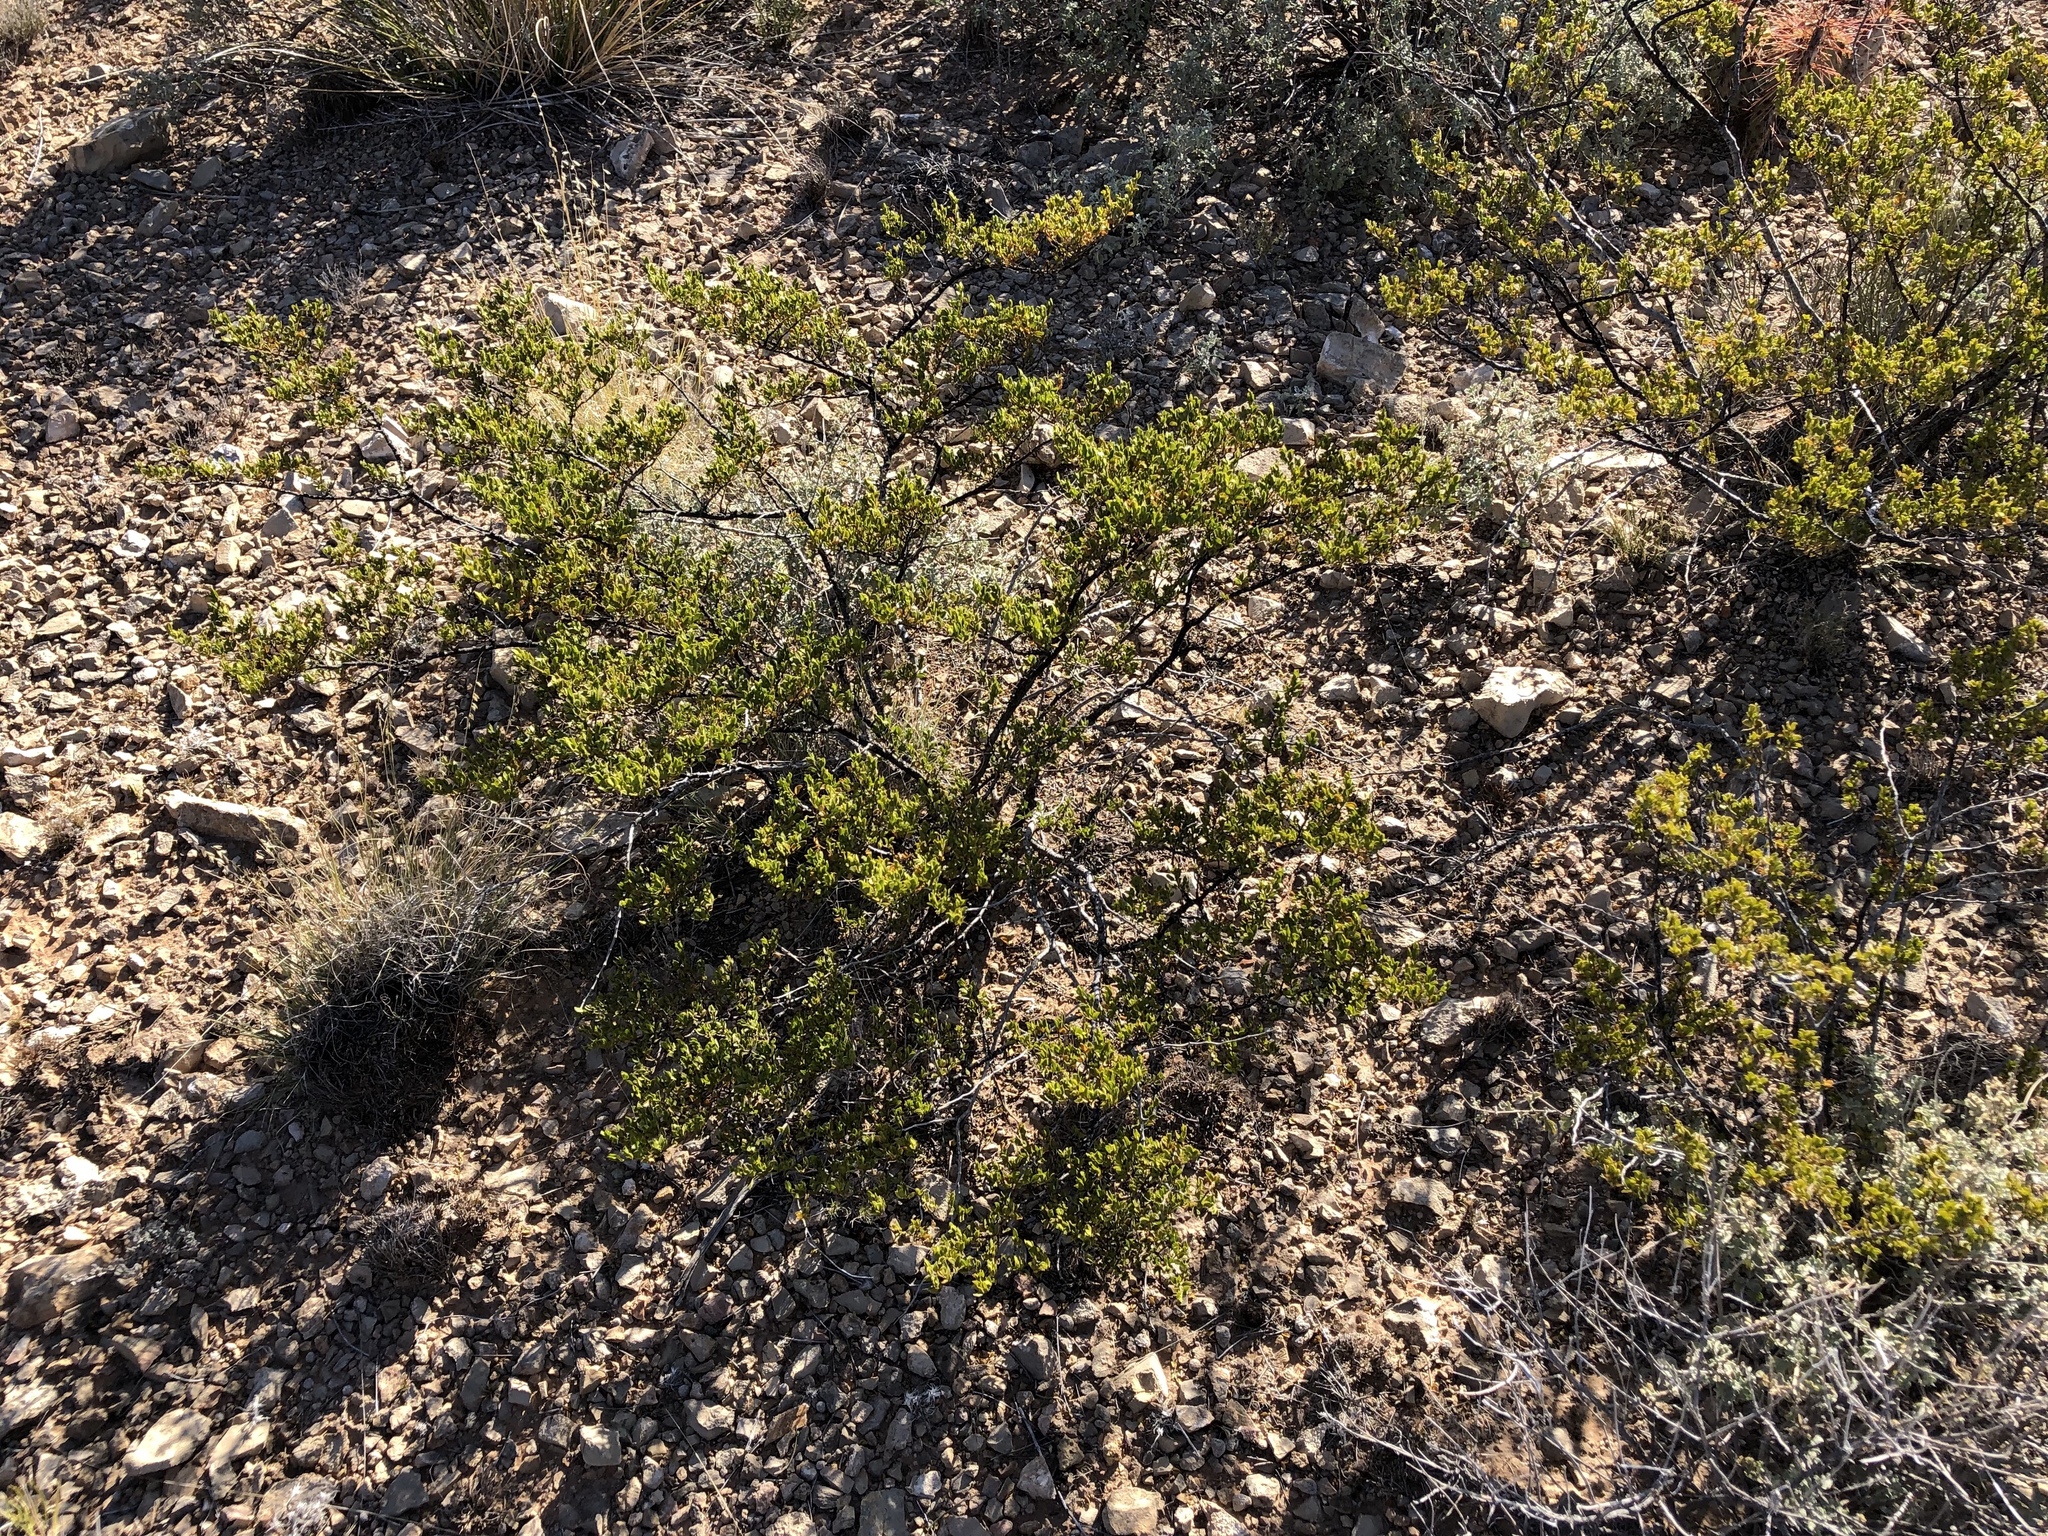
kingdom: Plantae
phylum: Tracheophyta
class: Magnoliopsida
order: Zygophyllales
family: Zygophyllaceae
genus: Larrea
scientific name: Larrea tridentata
